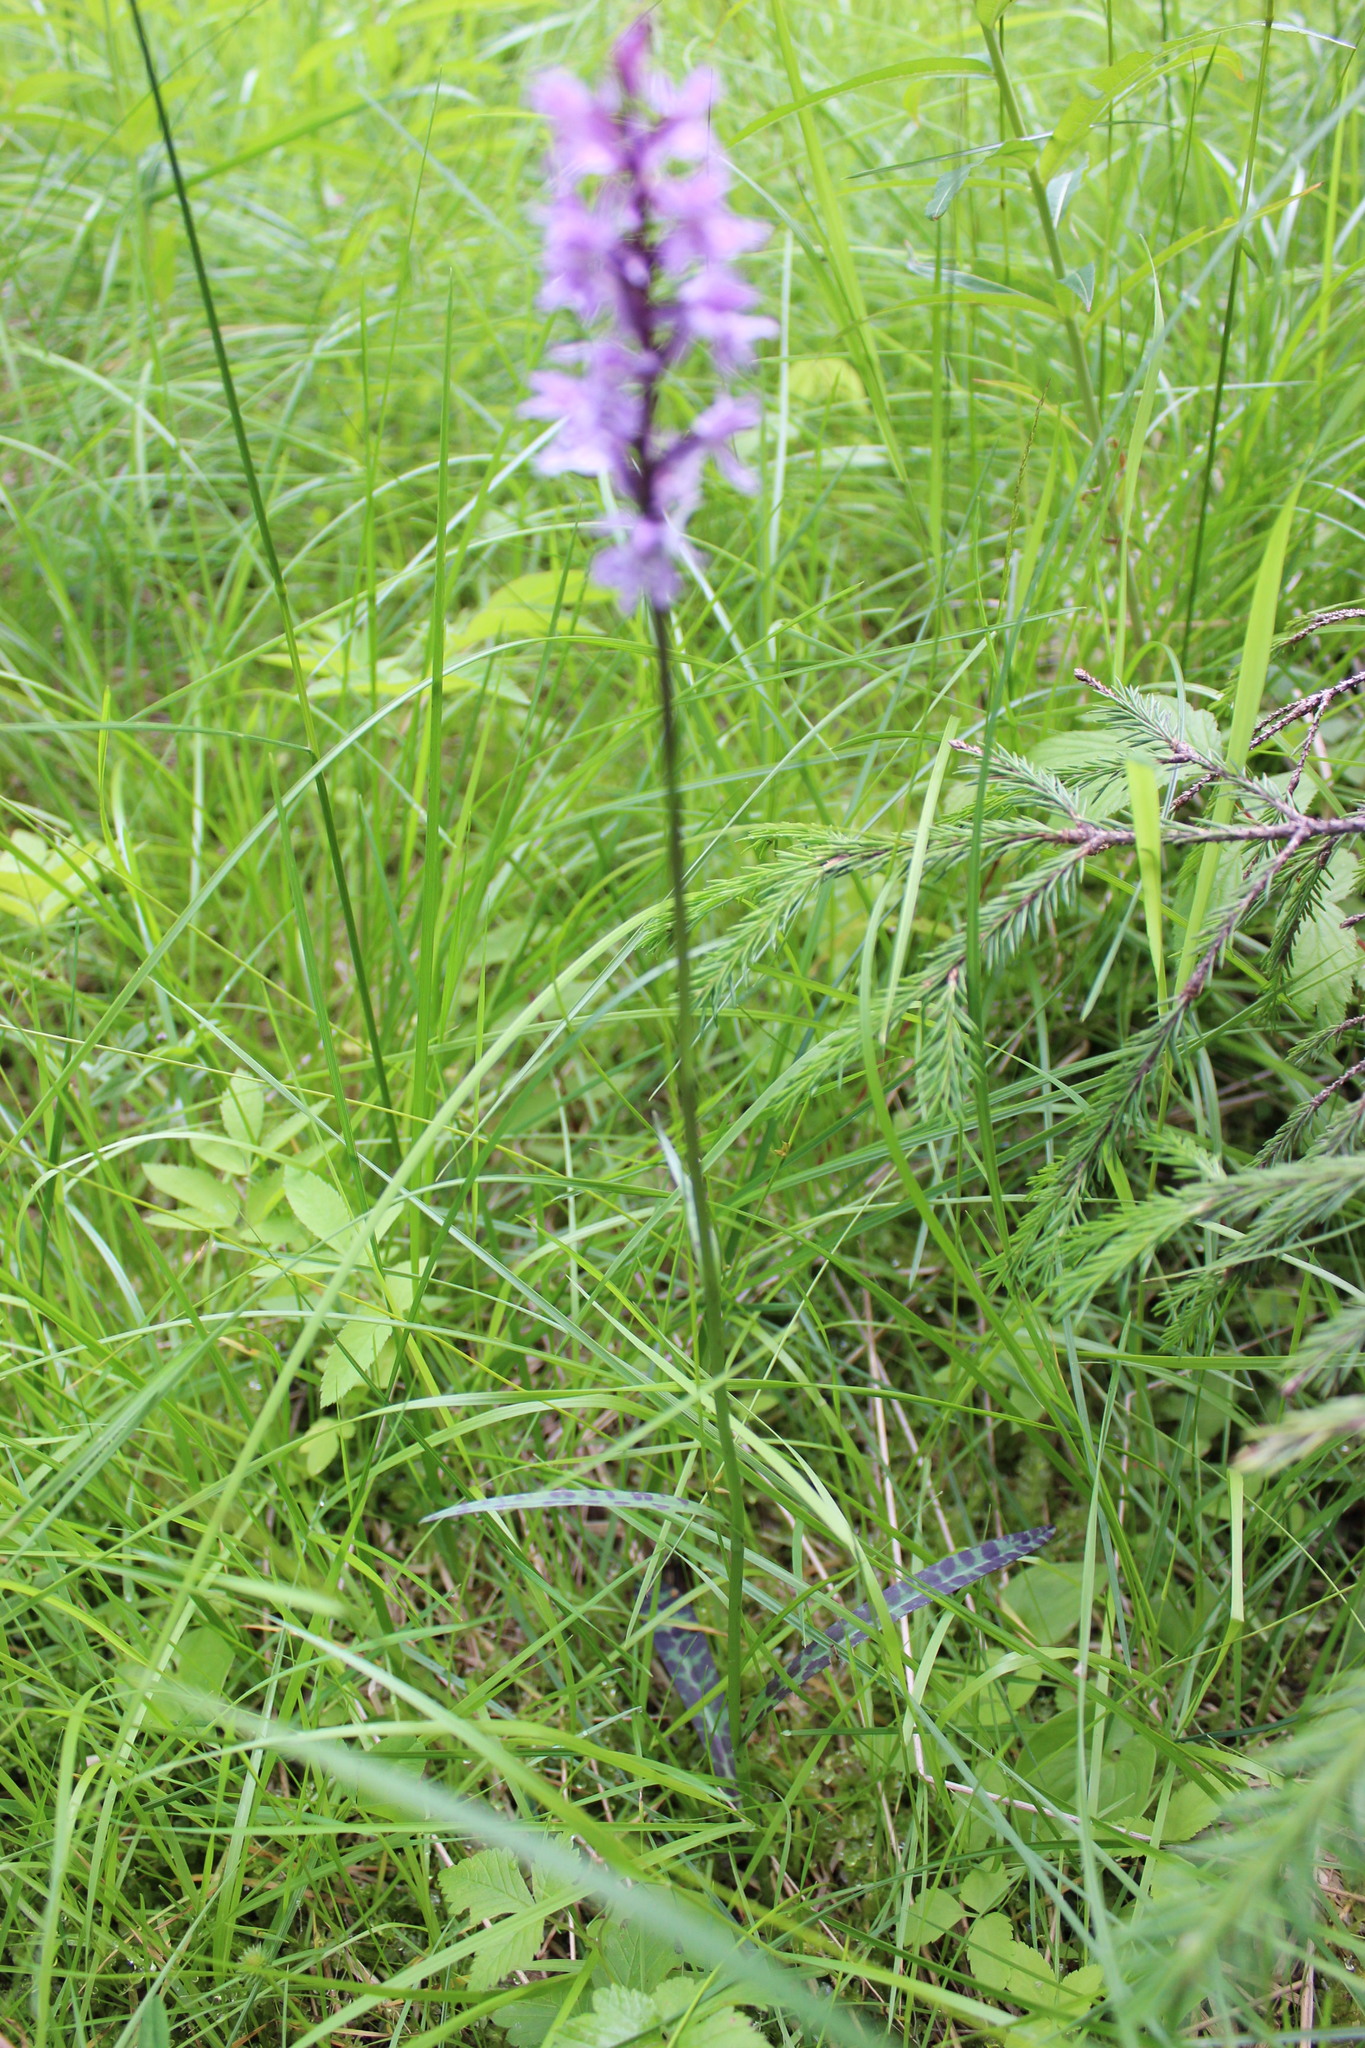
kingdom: Plantae
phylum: Tracheophyta
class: Liliopsida
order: Asparagales
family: Orchidaceae
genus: Dactylorhiza
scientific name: Dactylorhiza maculata
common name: Heath spotted-orchid
